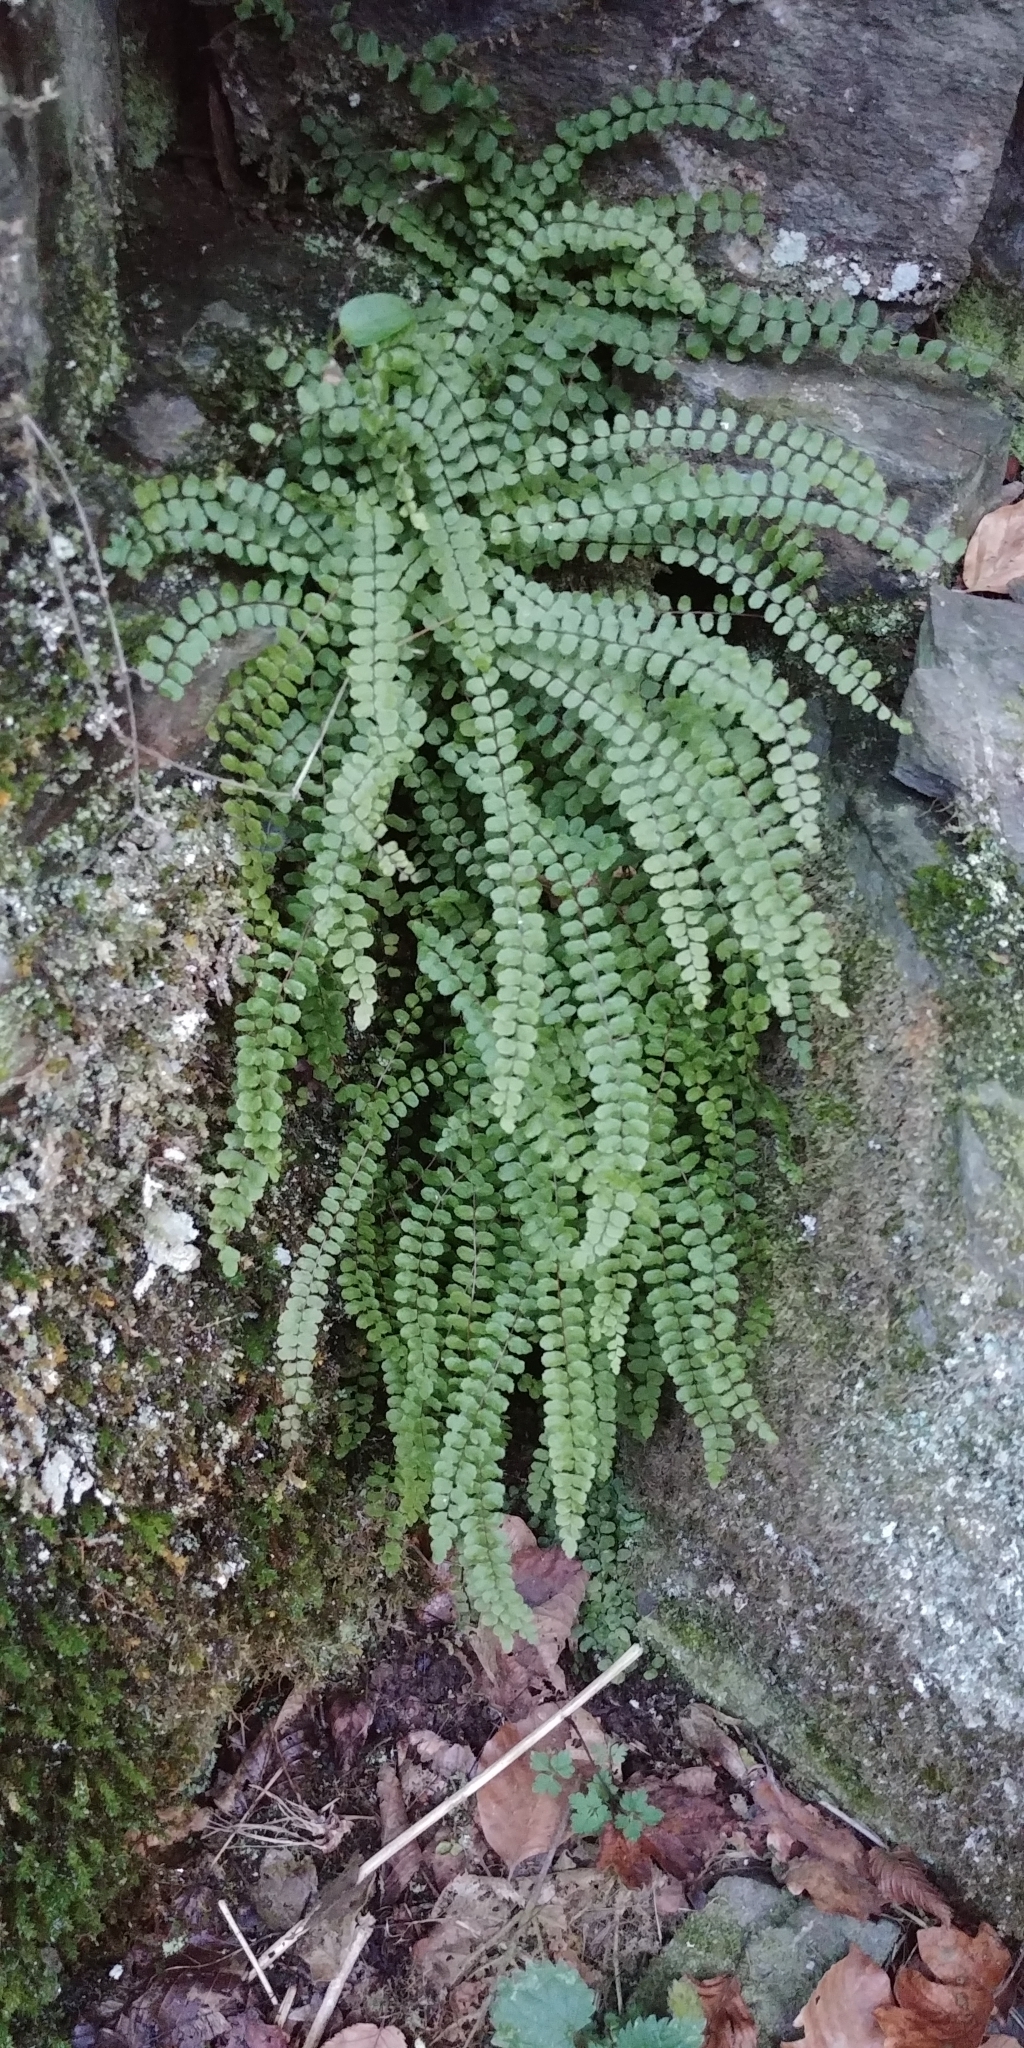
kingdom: Plantae
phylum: Tracheophyta
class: Polypodiopsida
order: Polypodiales
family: Aspleniaceae
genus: Asplenium
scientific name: Asplenium trichomanes
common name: Maidenhair spleenwort
